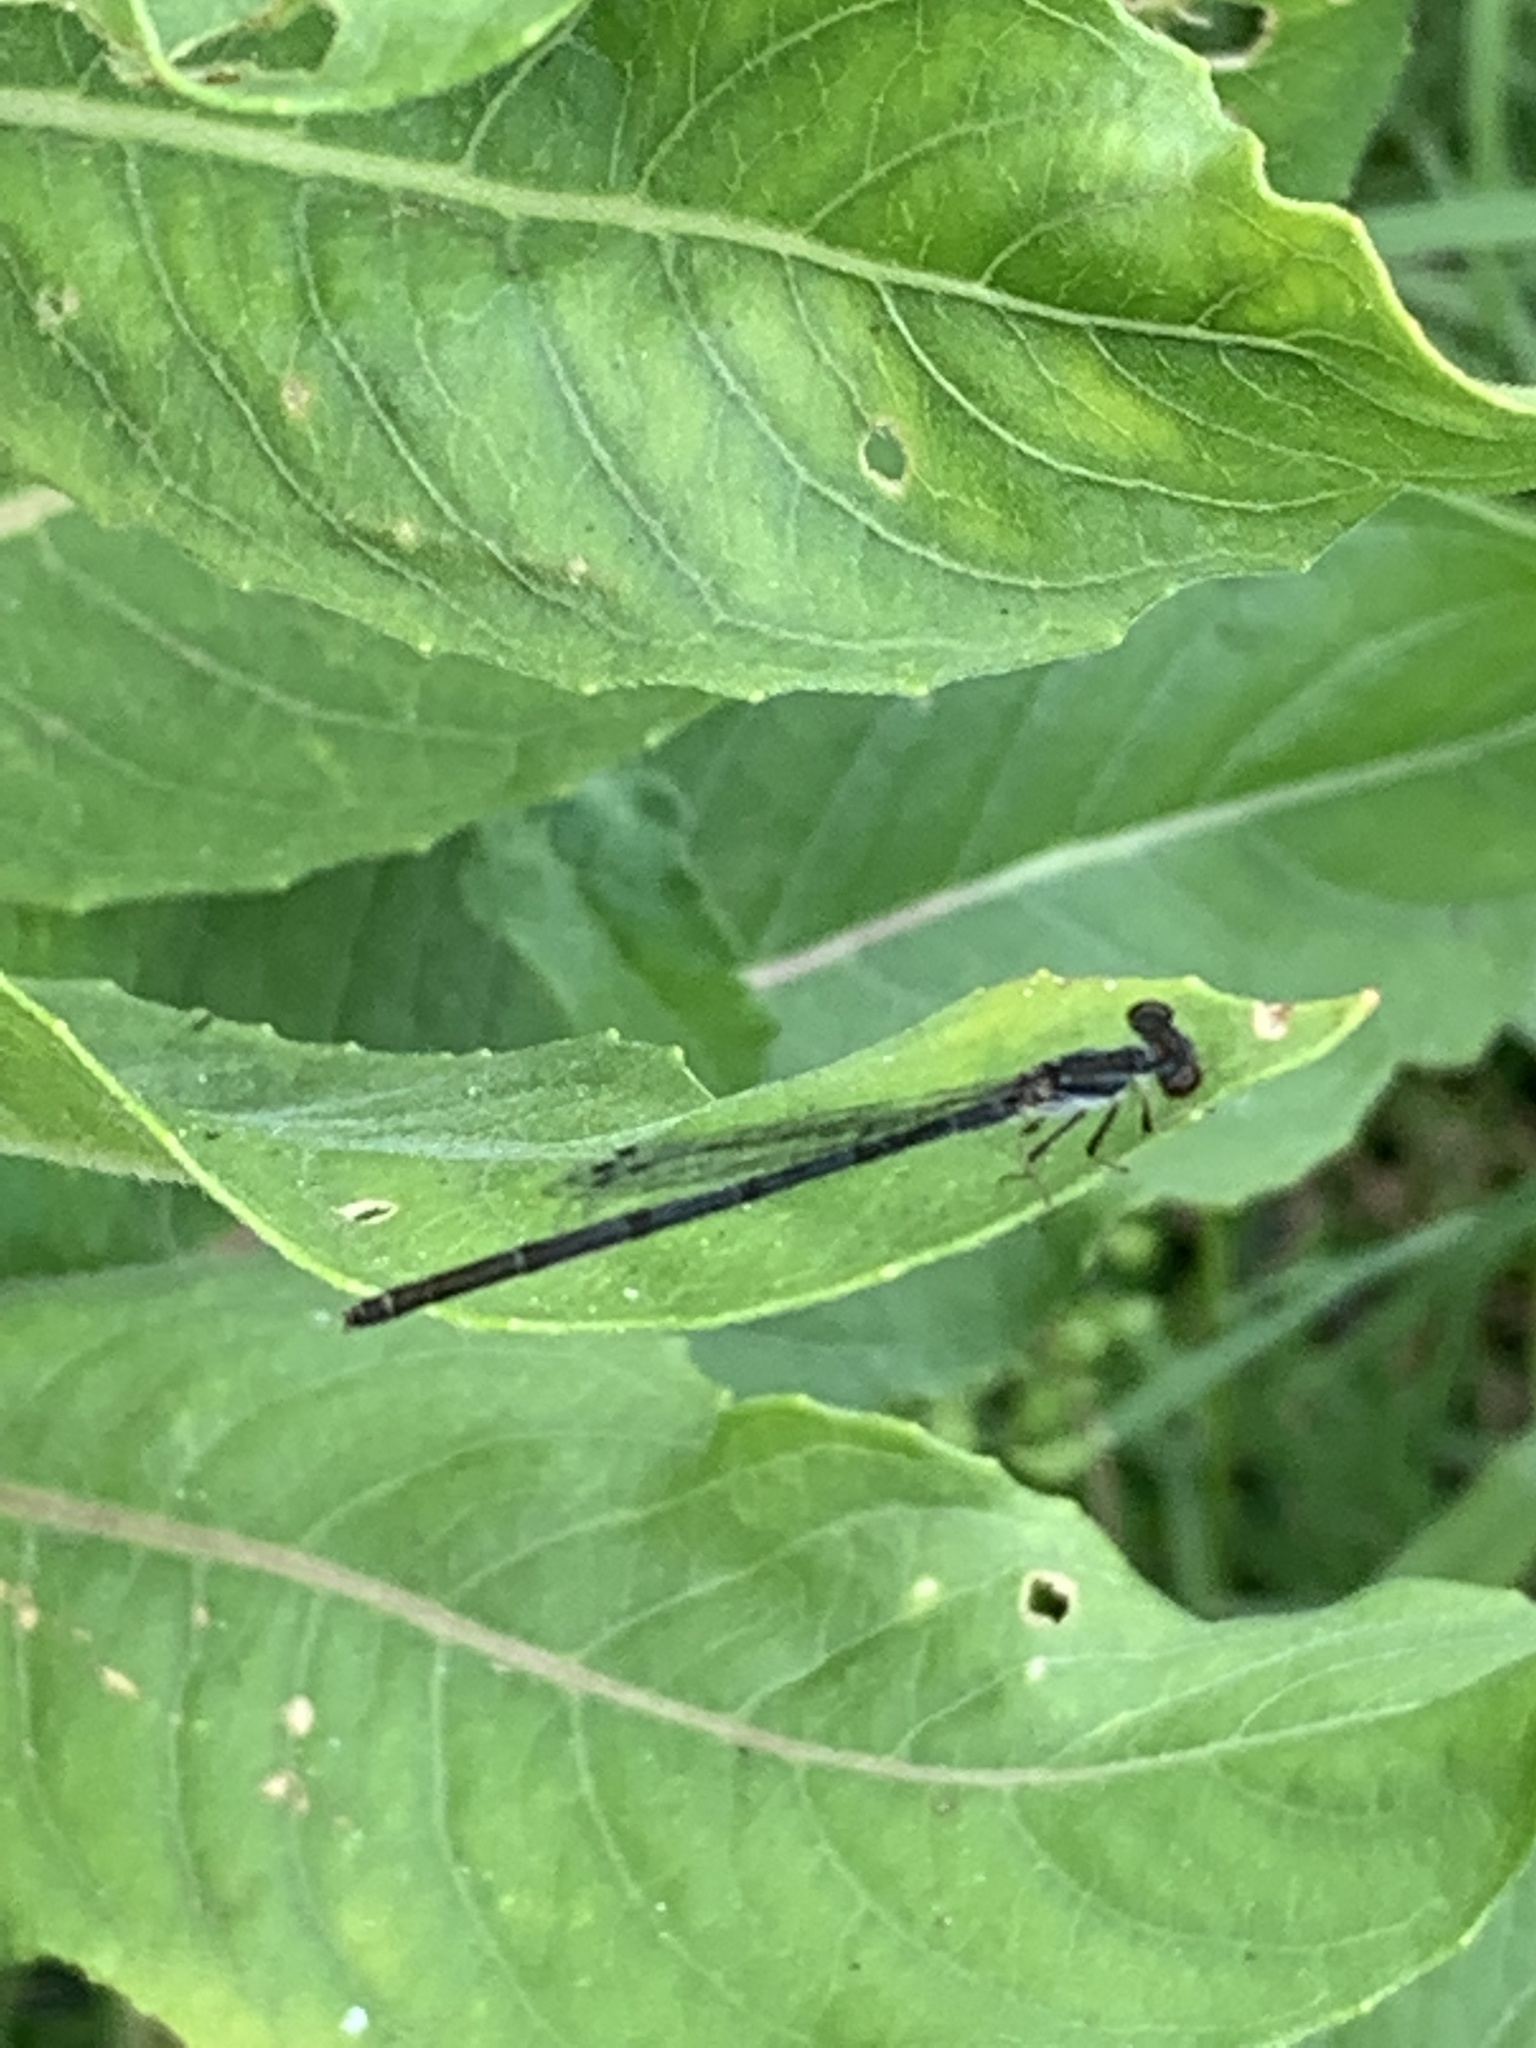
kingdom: Animalia
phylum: Arthropoda
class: Insecta
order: Odonata
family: Coenagrionidae
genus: Ischnura
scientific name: Ischnura posita
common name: Fragile forktail
